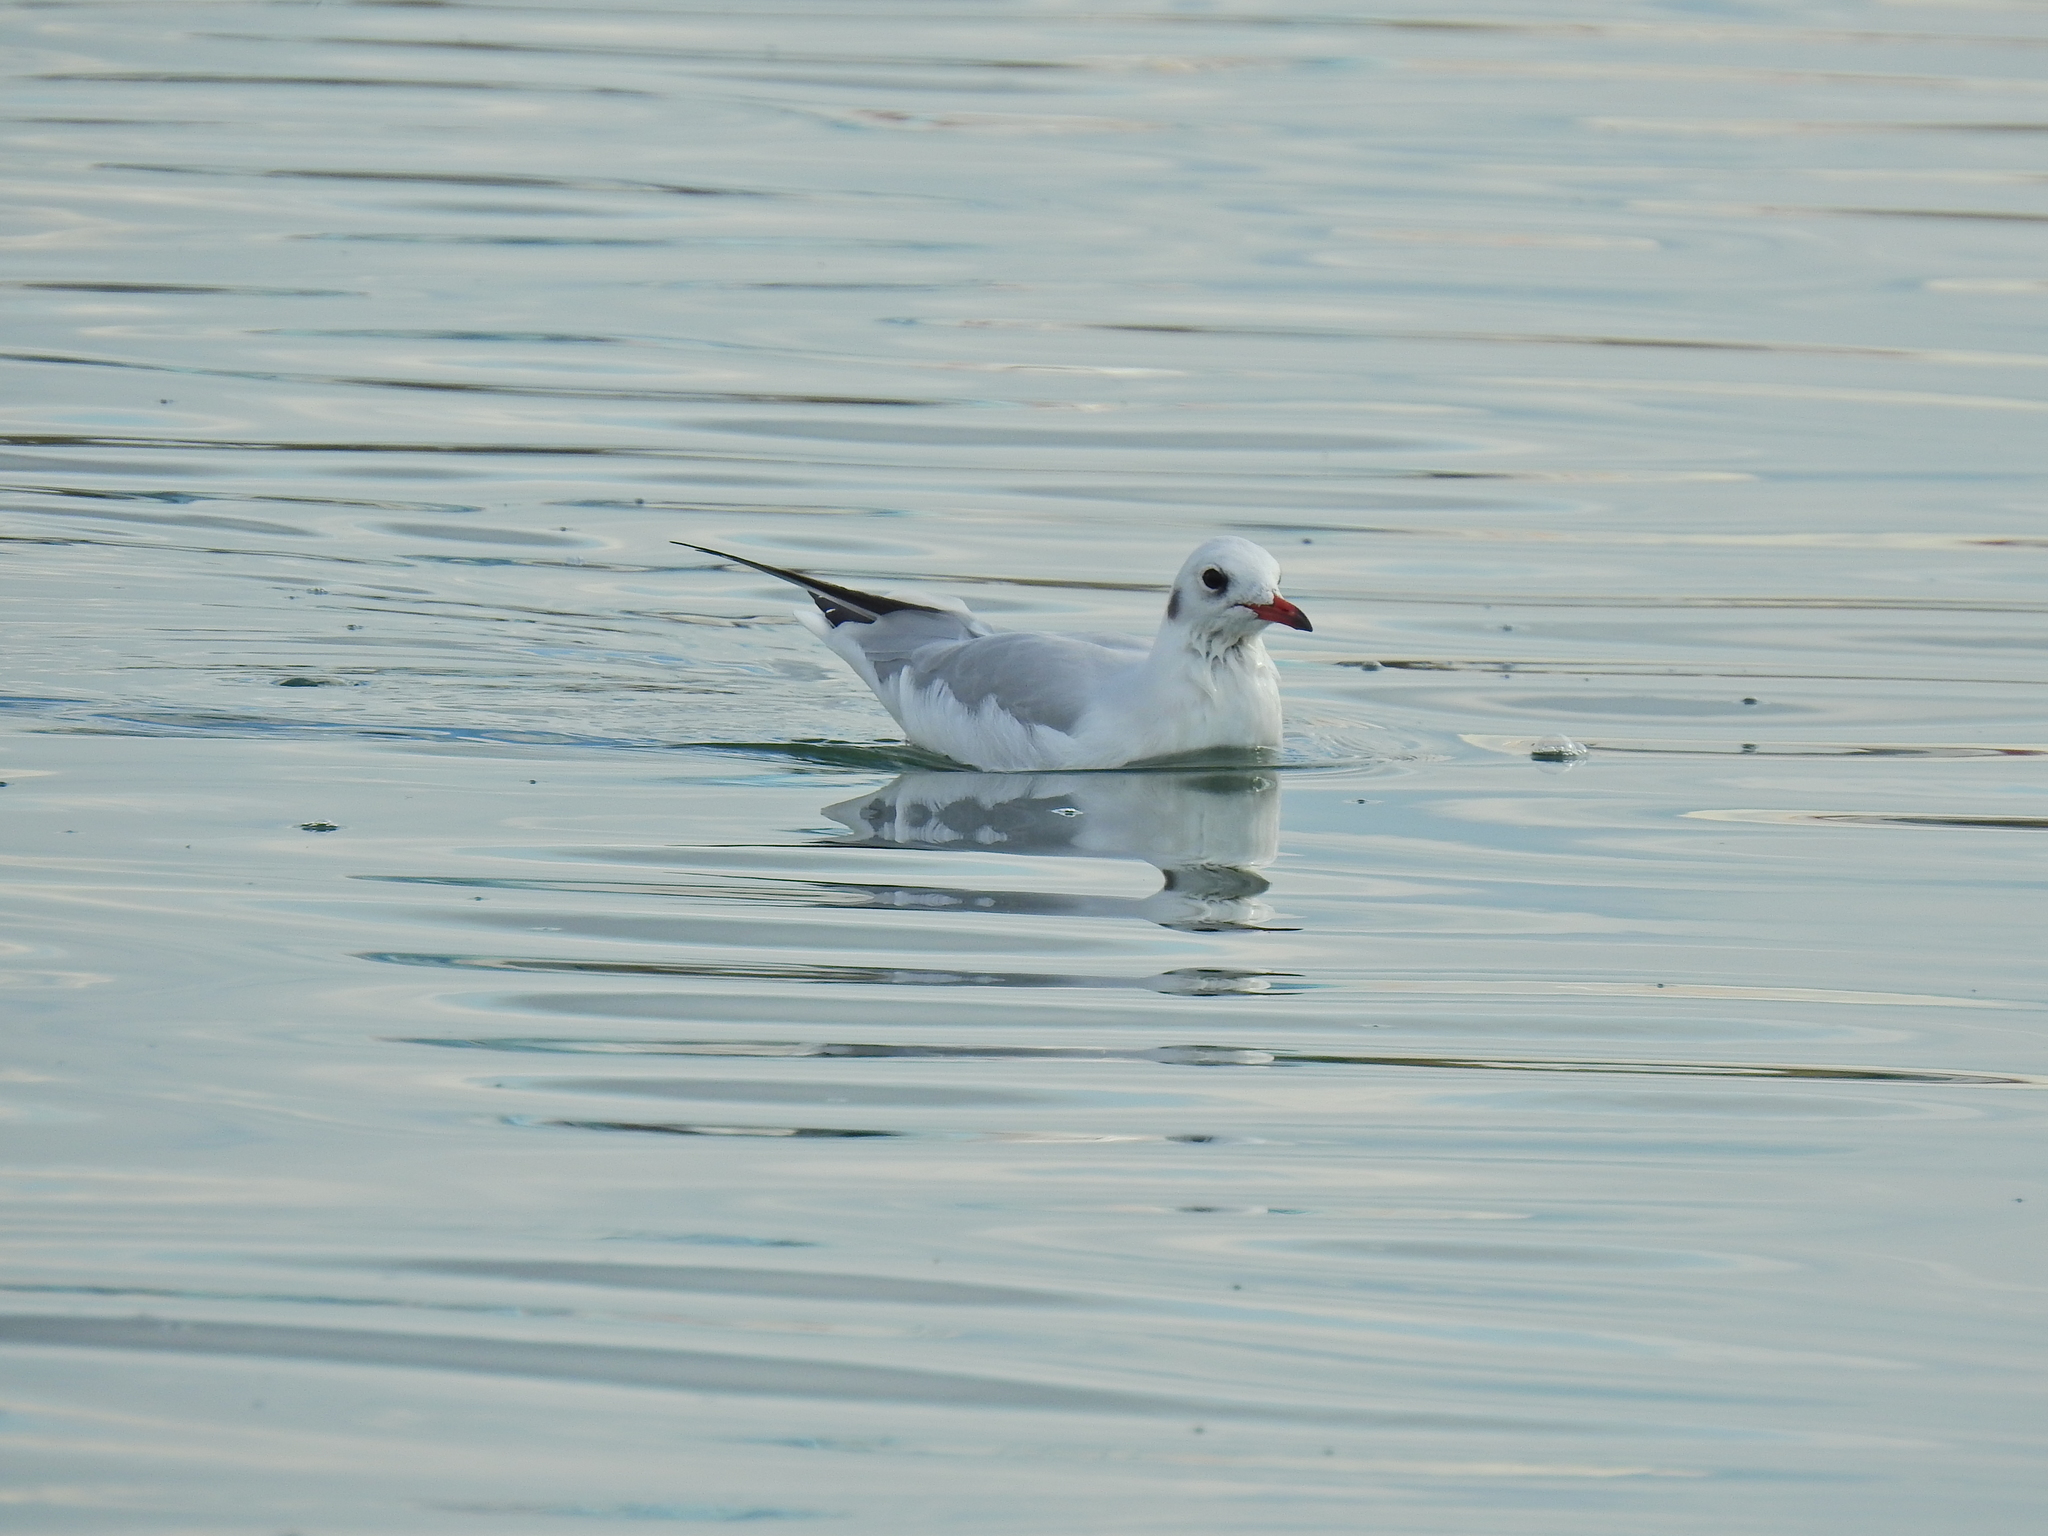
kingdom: Animalia
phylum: Chordata
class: Aves
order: Charadriiformes
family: Laridae
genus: Chroicocephalus
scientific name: Chroicocephalus ridibundus
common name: Black-headed gull
